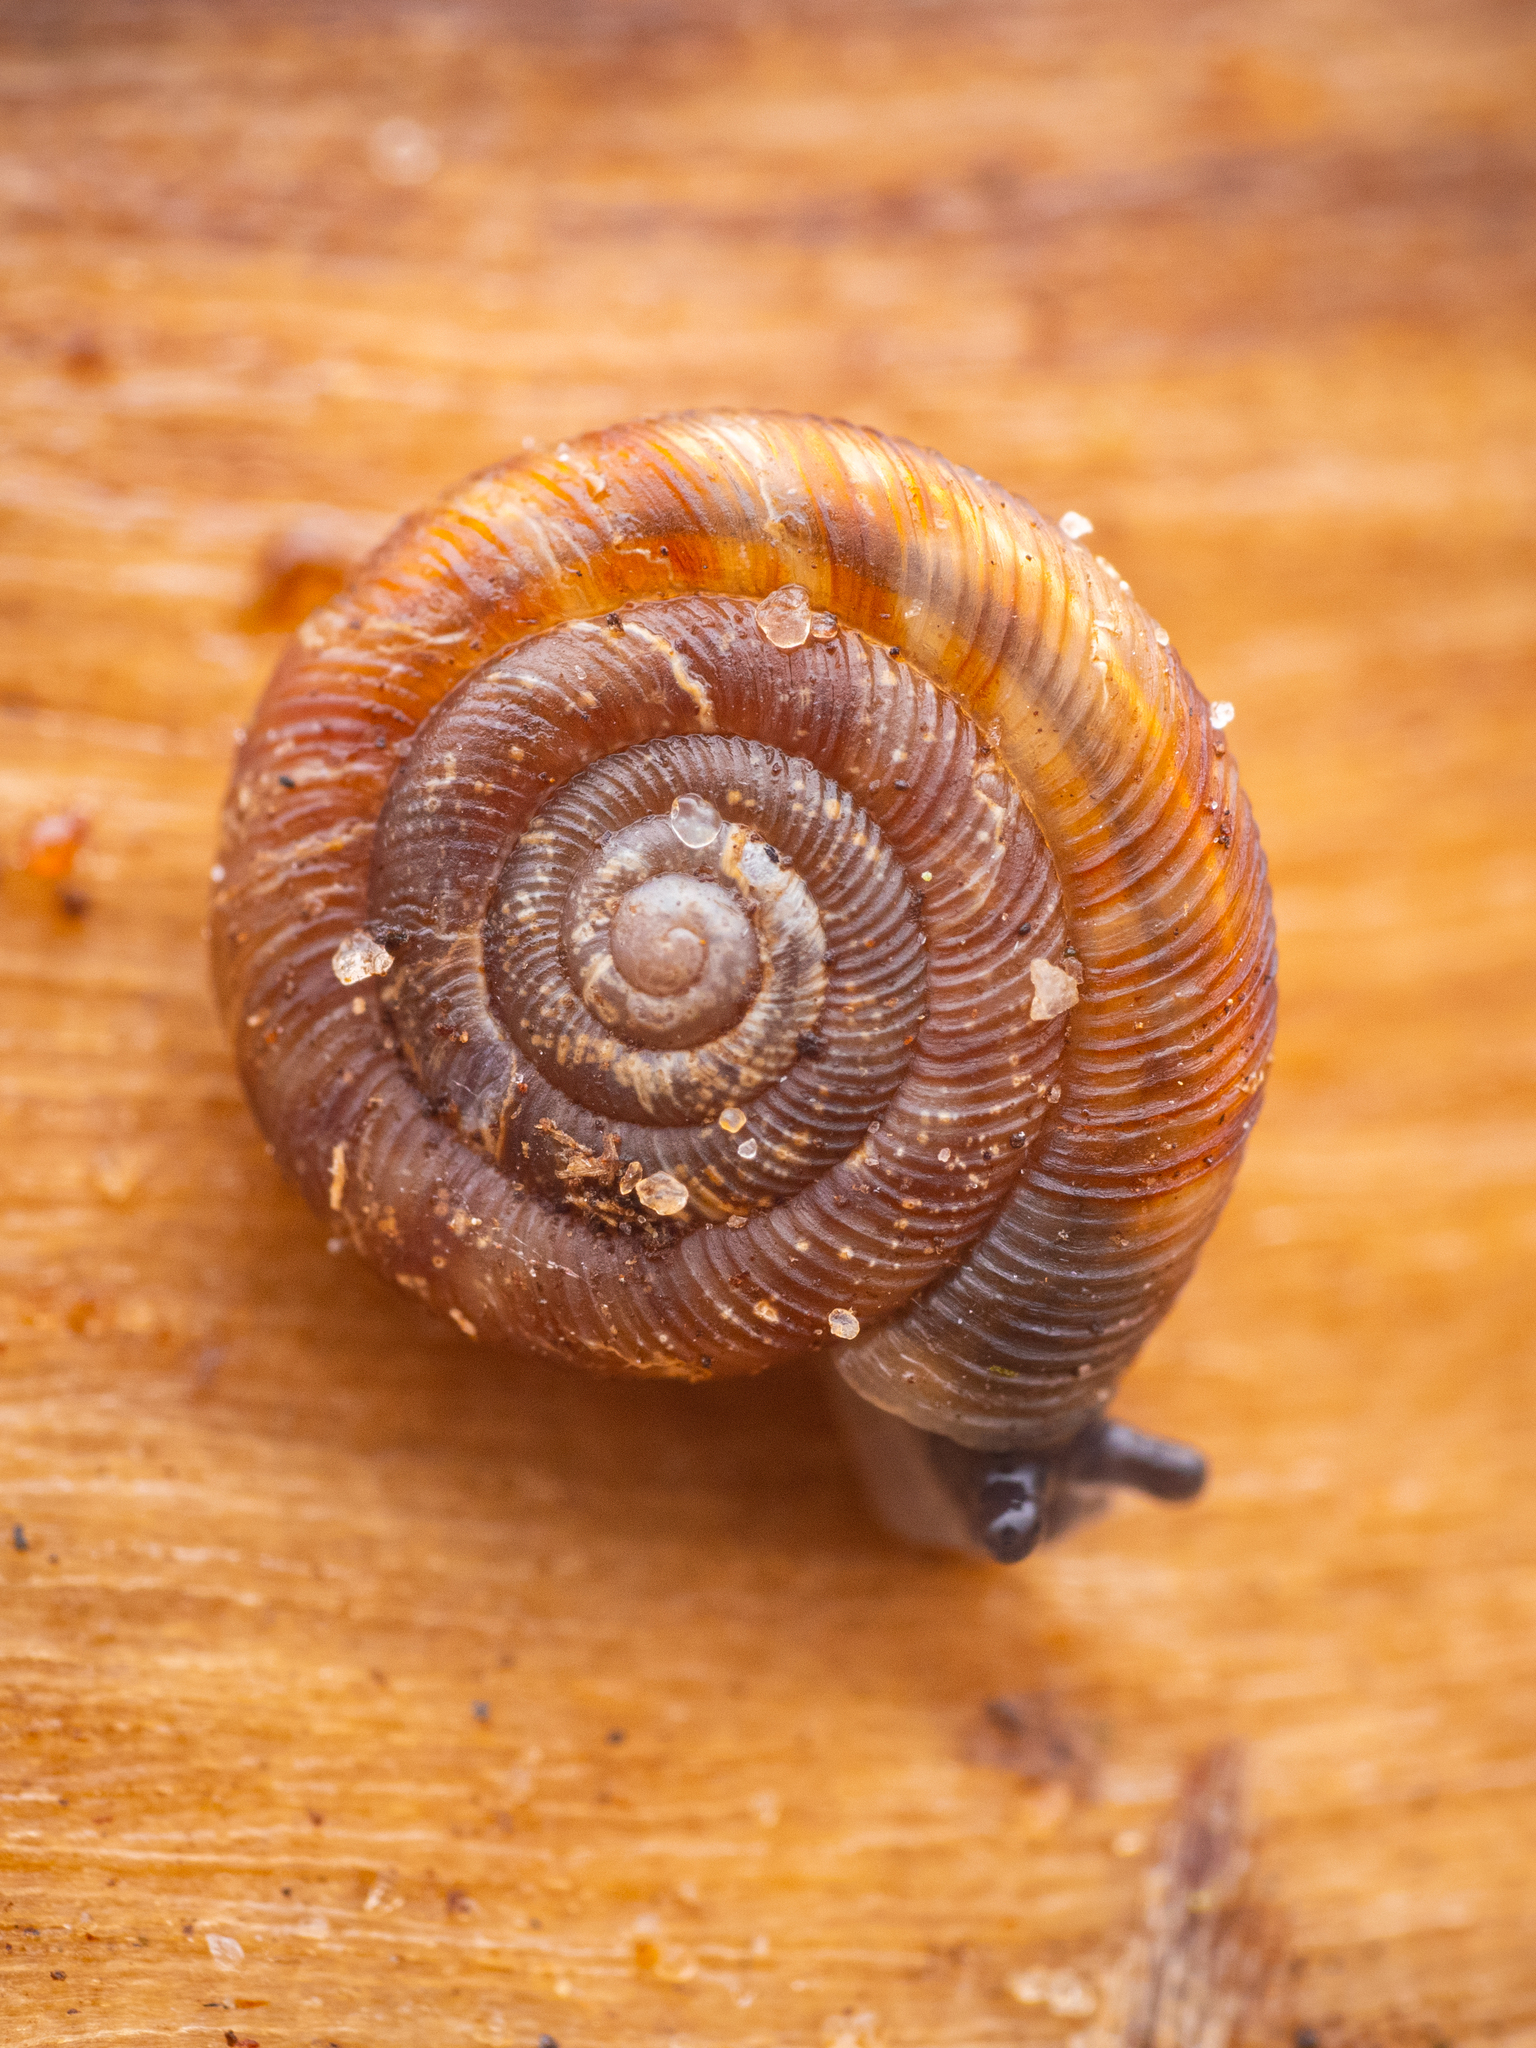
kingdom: Animalia
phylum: Mollusca
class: Gastropoda
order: Stylommatophora
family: Discidae
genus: Discus
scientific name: Discus rotundatus
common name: Rounded snail
